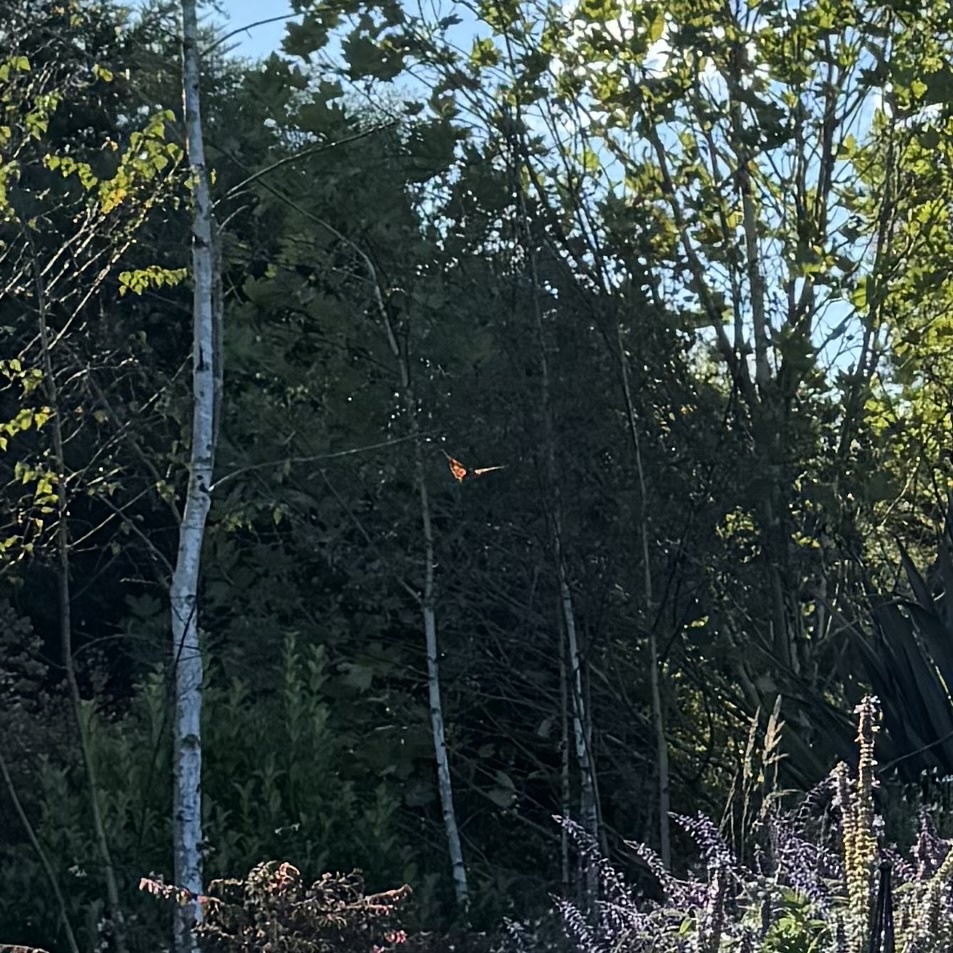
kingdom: Animalia
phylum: Arthropoda
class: Insecta
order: Lepidoptera
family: Nymphalidae
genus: Danaus
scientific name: Danaus plexippus
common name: Monarch
